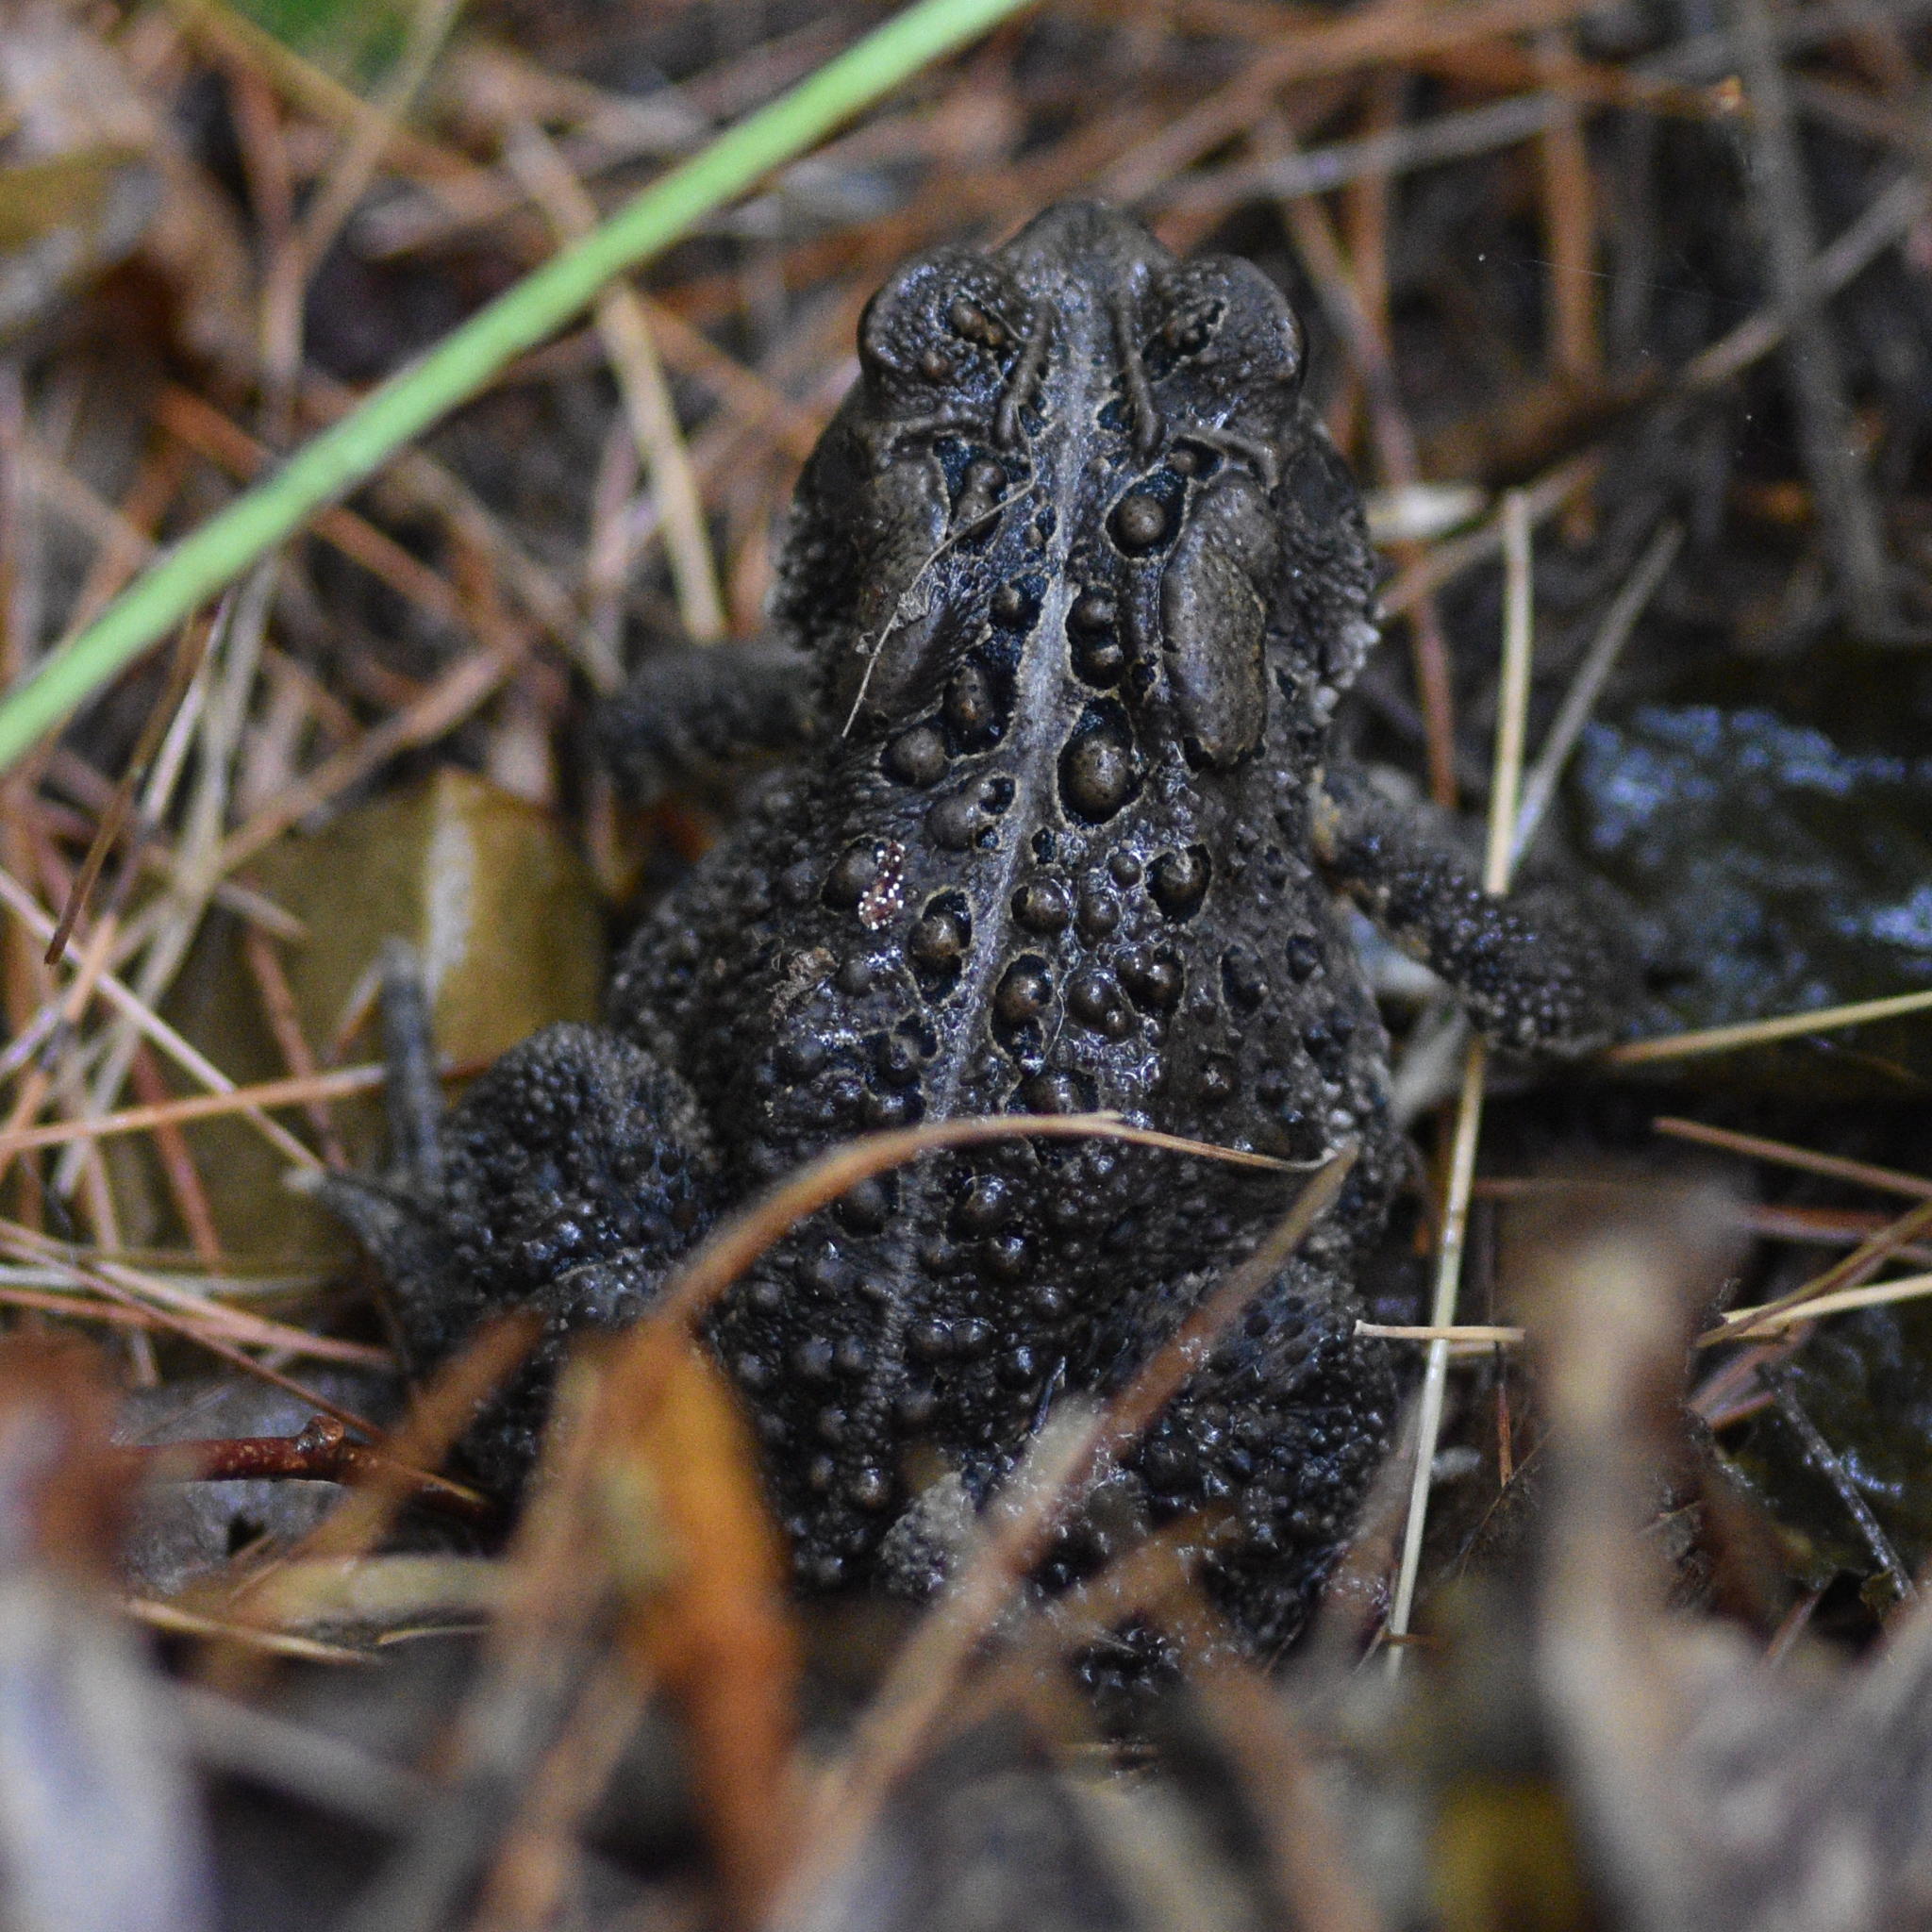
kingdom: Animalia
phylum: Chordata
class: Amphibia
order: Anura
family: Bufonidae
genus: Anaxyrus
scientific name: Anaxyrus americanus
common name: American toad
